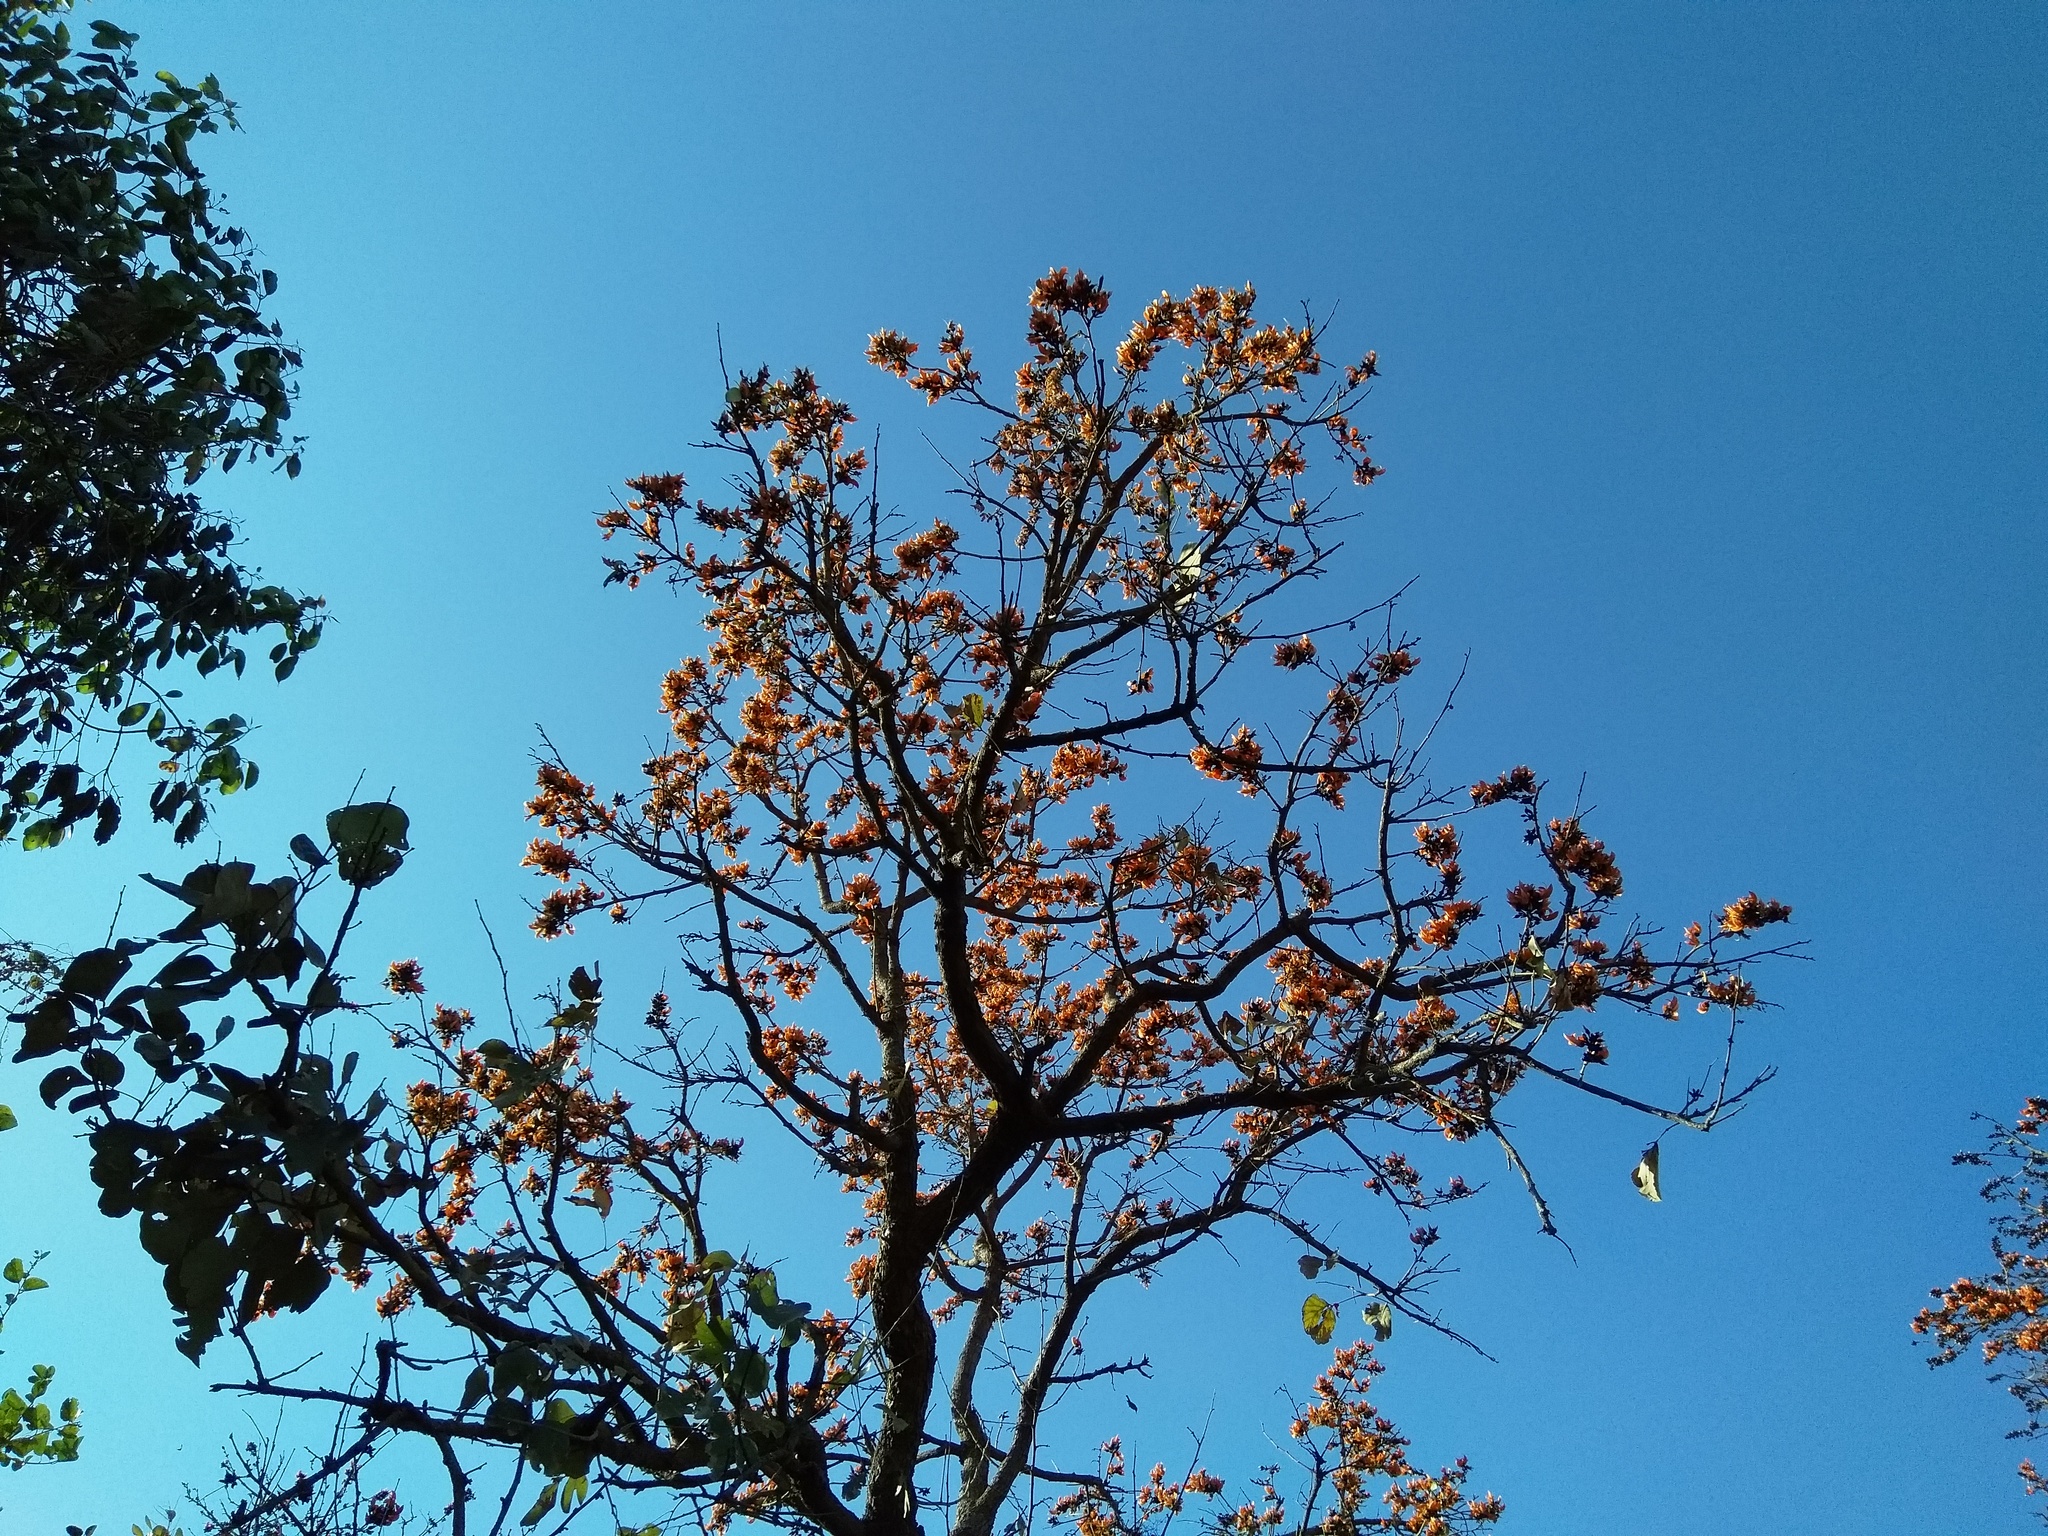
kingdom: Plantae
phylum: Tracheophyta
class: Magnoliopsida
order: Fabales
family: Fabaceae
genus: Butea
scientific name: Butea monosperma
